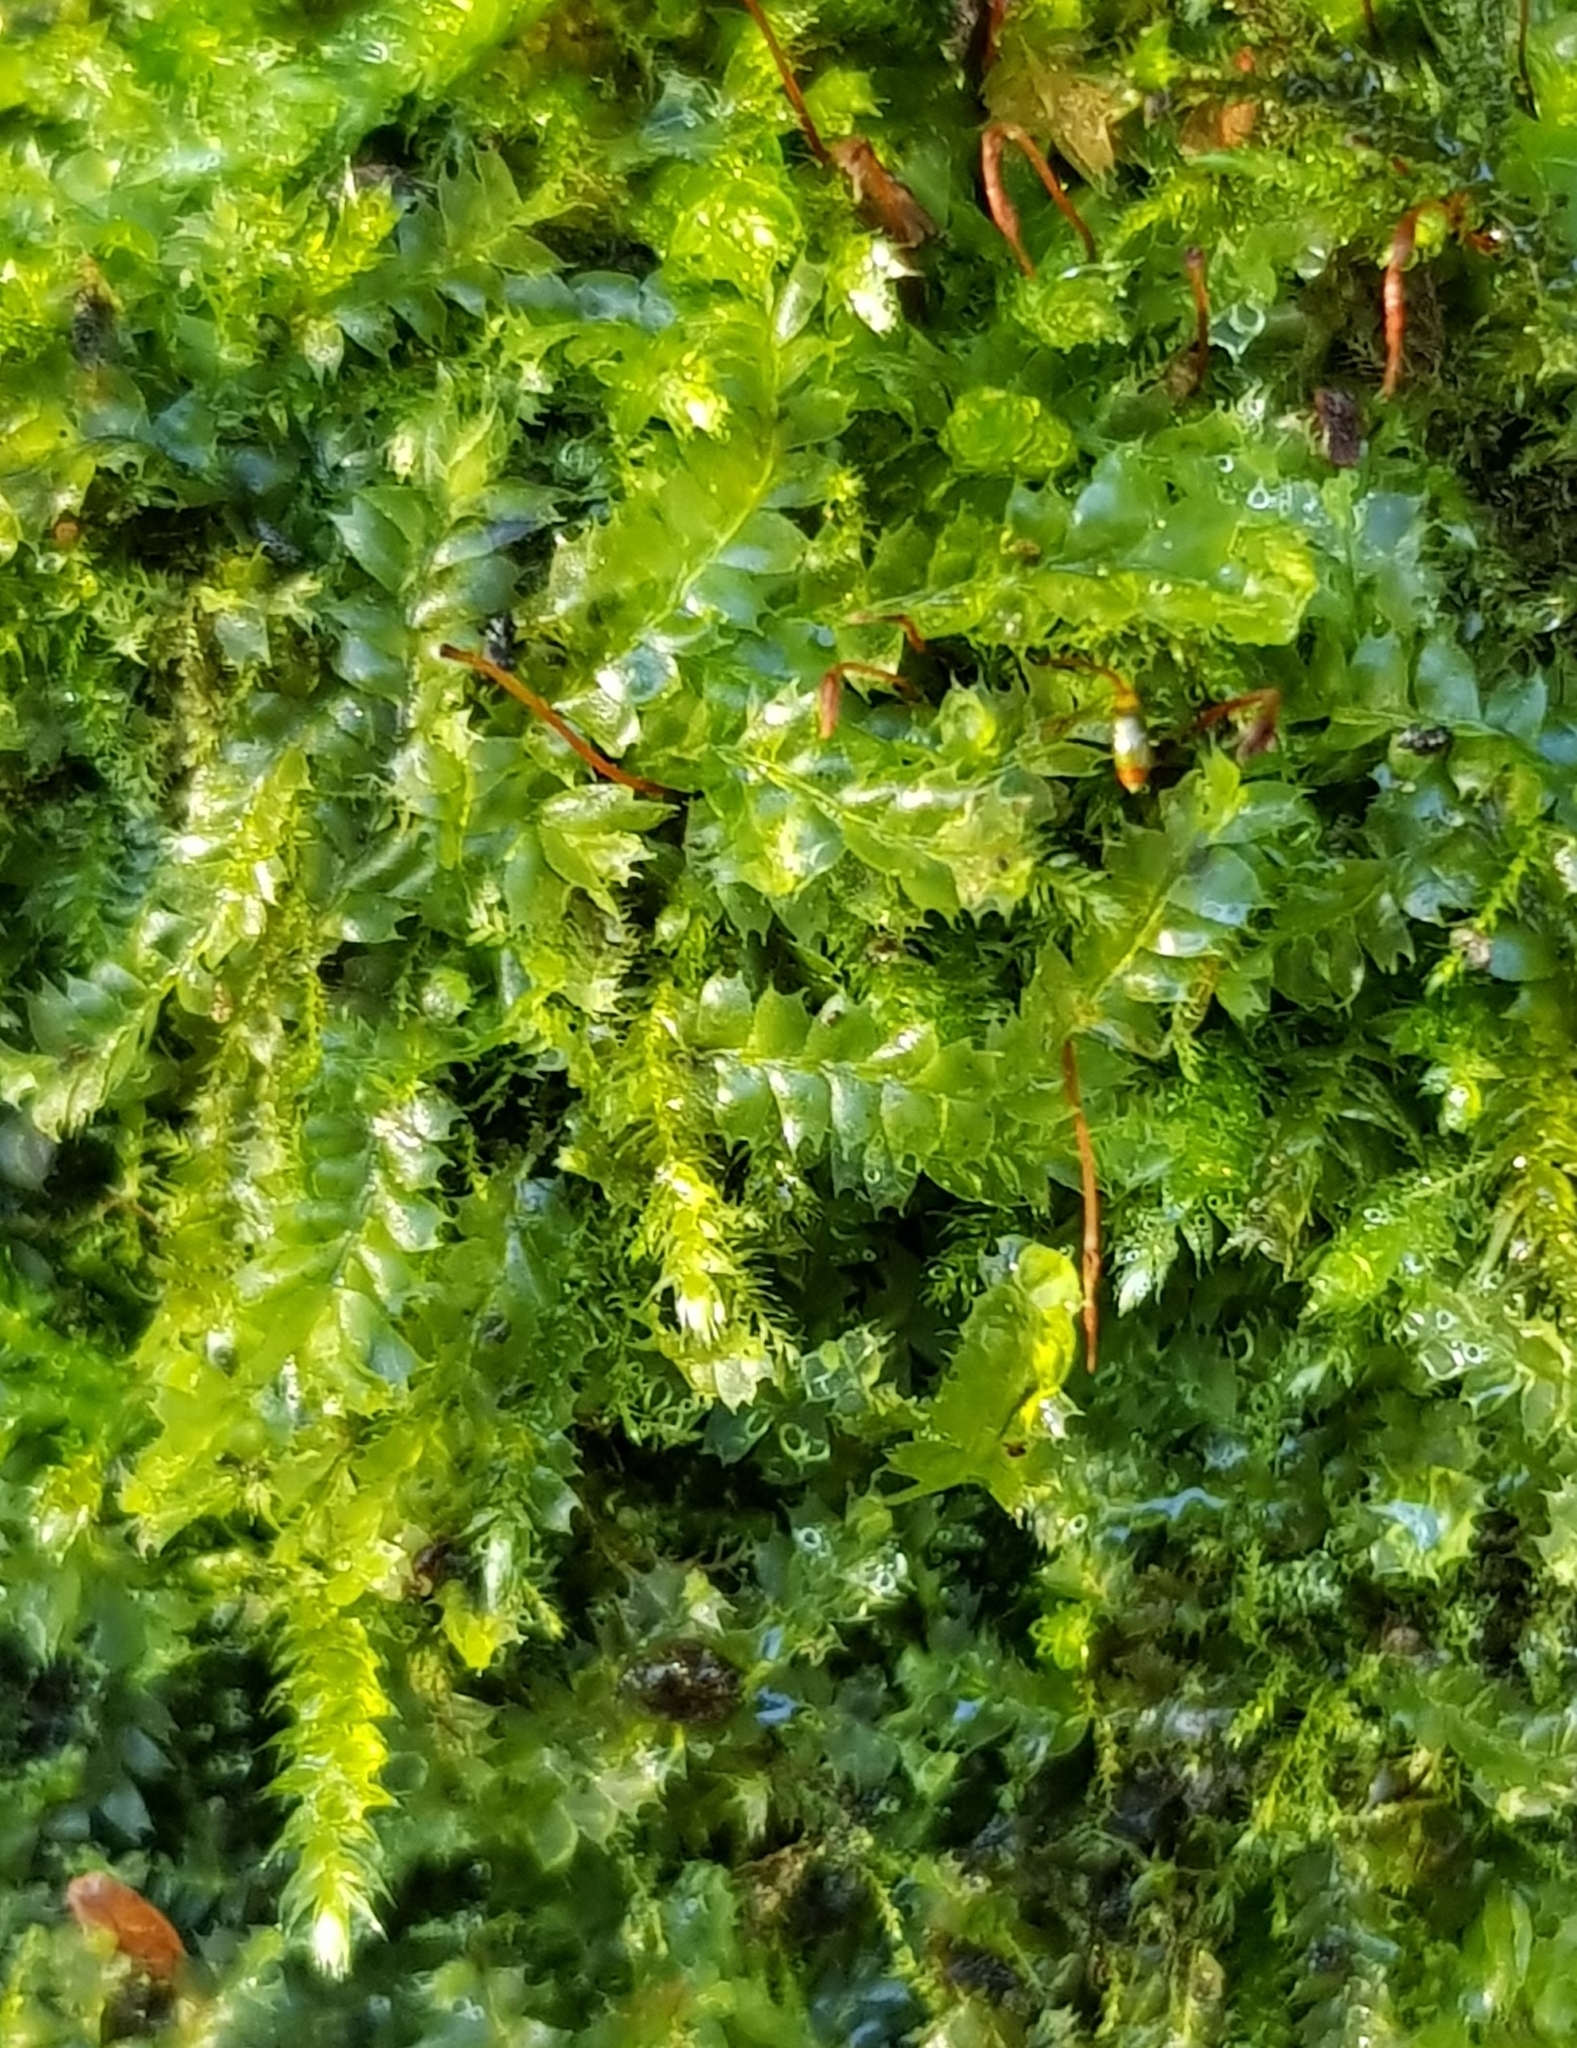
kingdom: Plantae
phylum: Marchantiophyta
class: Jungermanniopsida
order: Jungermanniales
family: Lophocoleaceae
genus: Lophocolea
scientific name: Lophocolea bidentata
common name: Bifid crestwort
